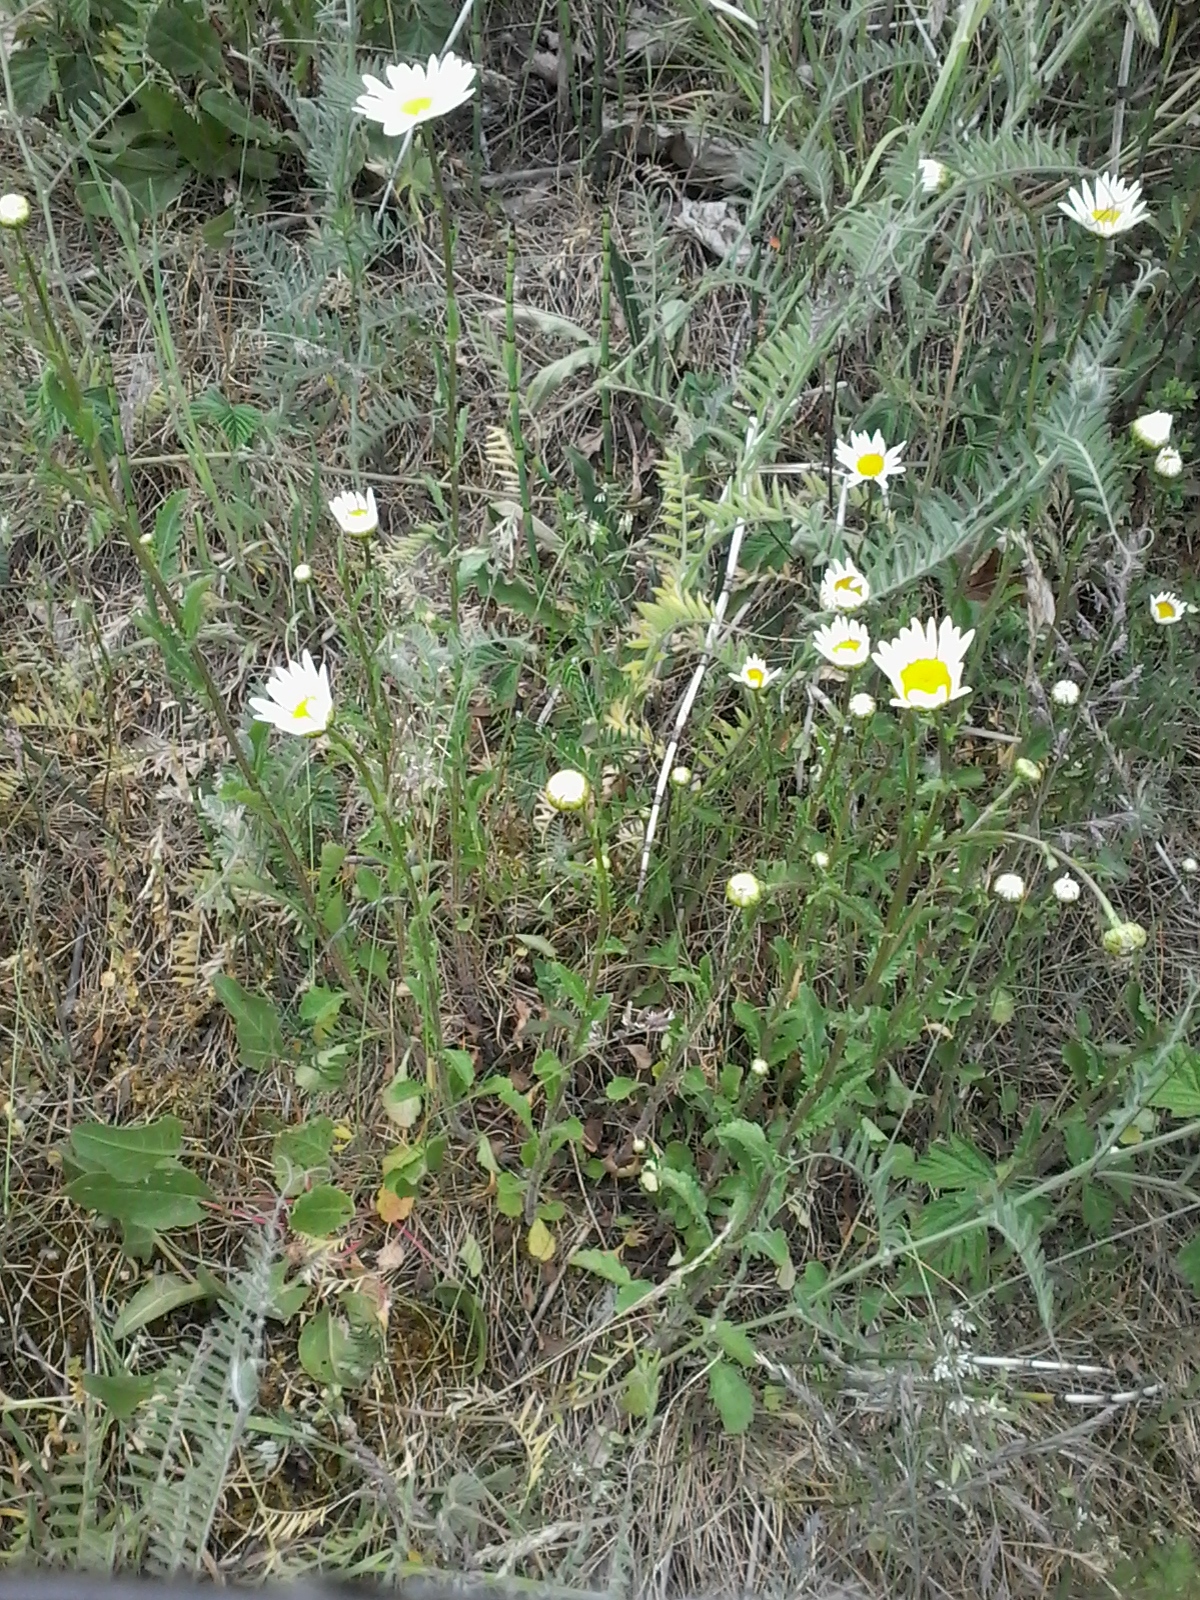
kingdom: Plantae
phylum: Tracheophyta
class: Magnoliopsida
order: Asterales
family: Asteraceae
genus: Leucanthemum
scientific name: Leucanthemum vulgare
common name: Oxeye daisy
